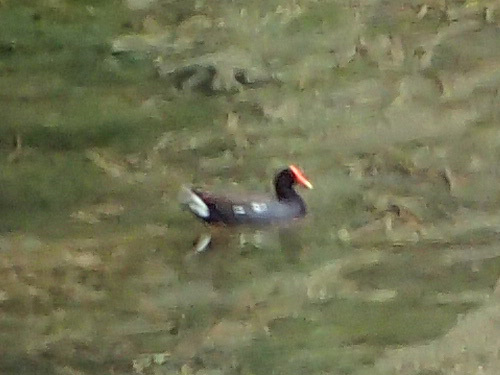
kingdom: Animalia
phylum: Chordata
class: Aves
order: Gruiformes
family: Rallidae
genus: Gallinula
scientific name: Gallinula chloropus
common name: Common moorhen
